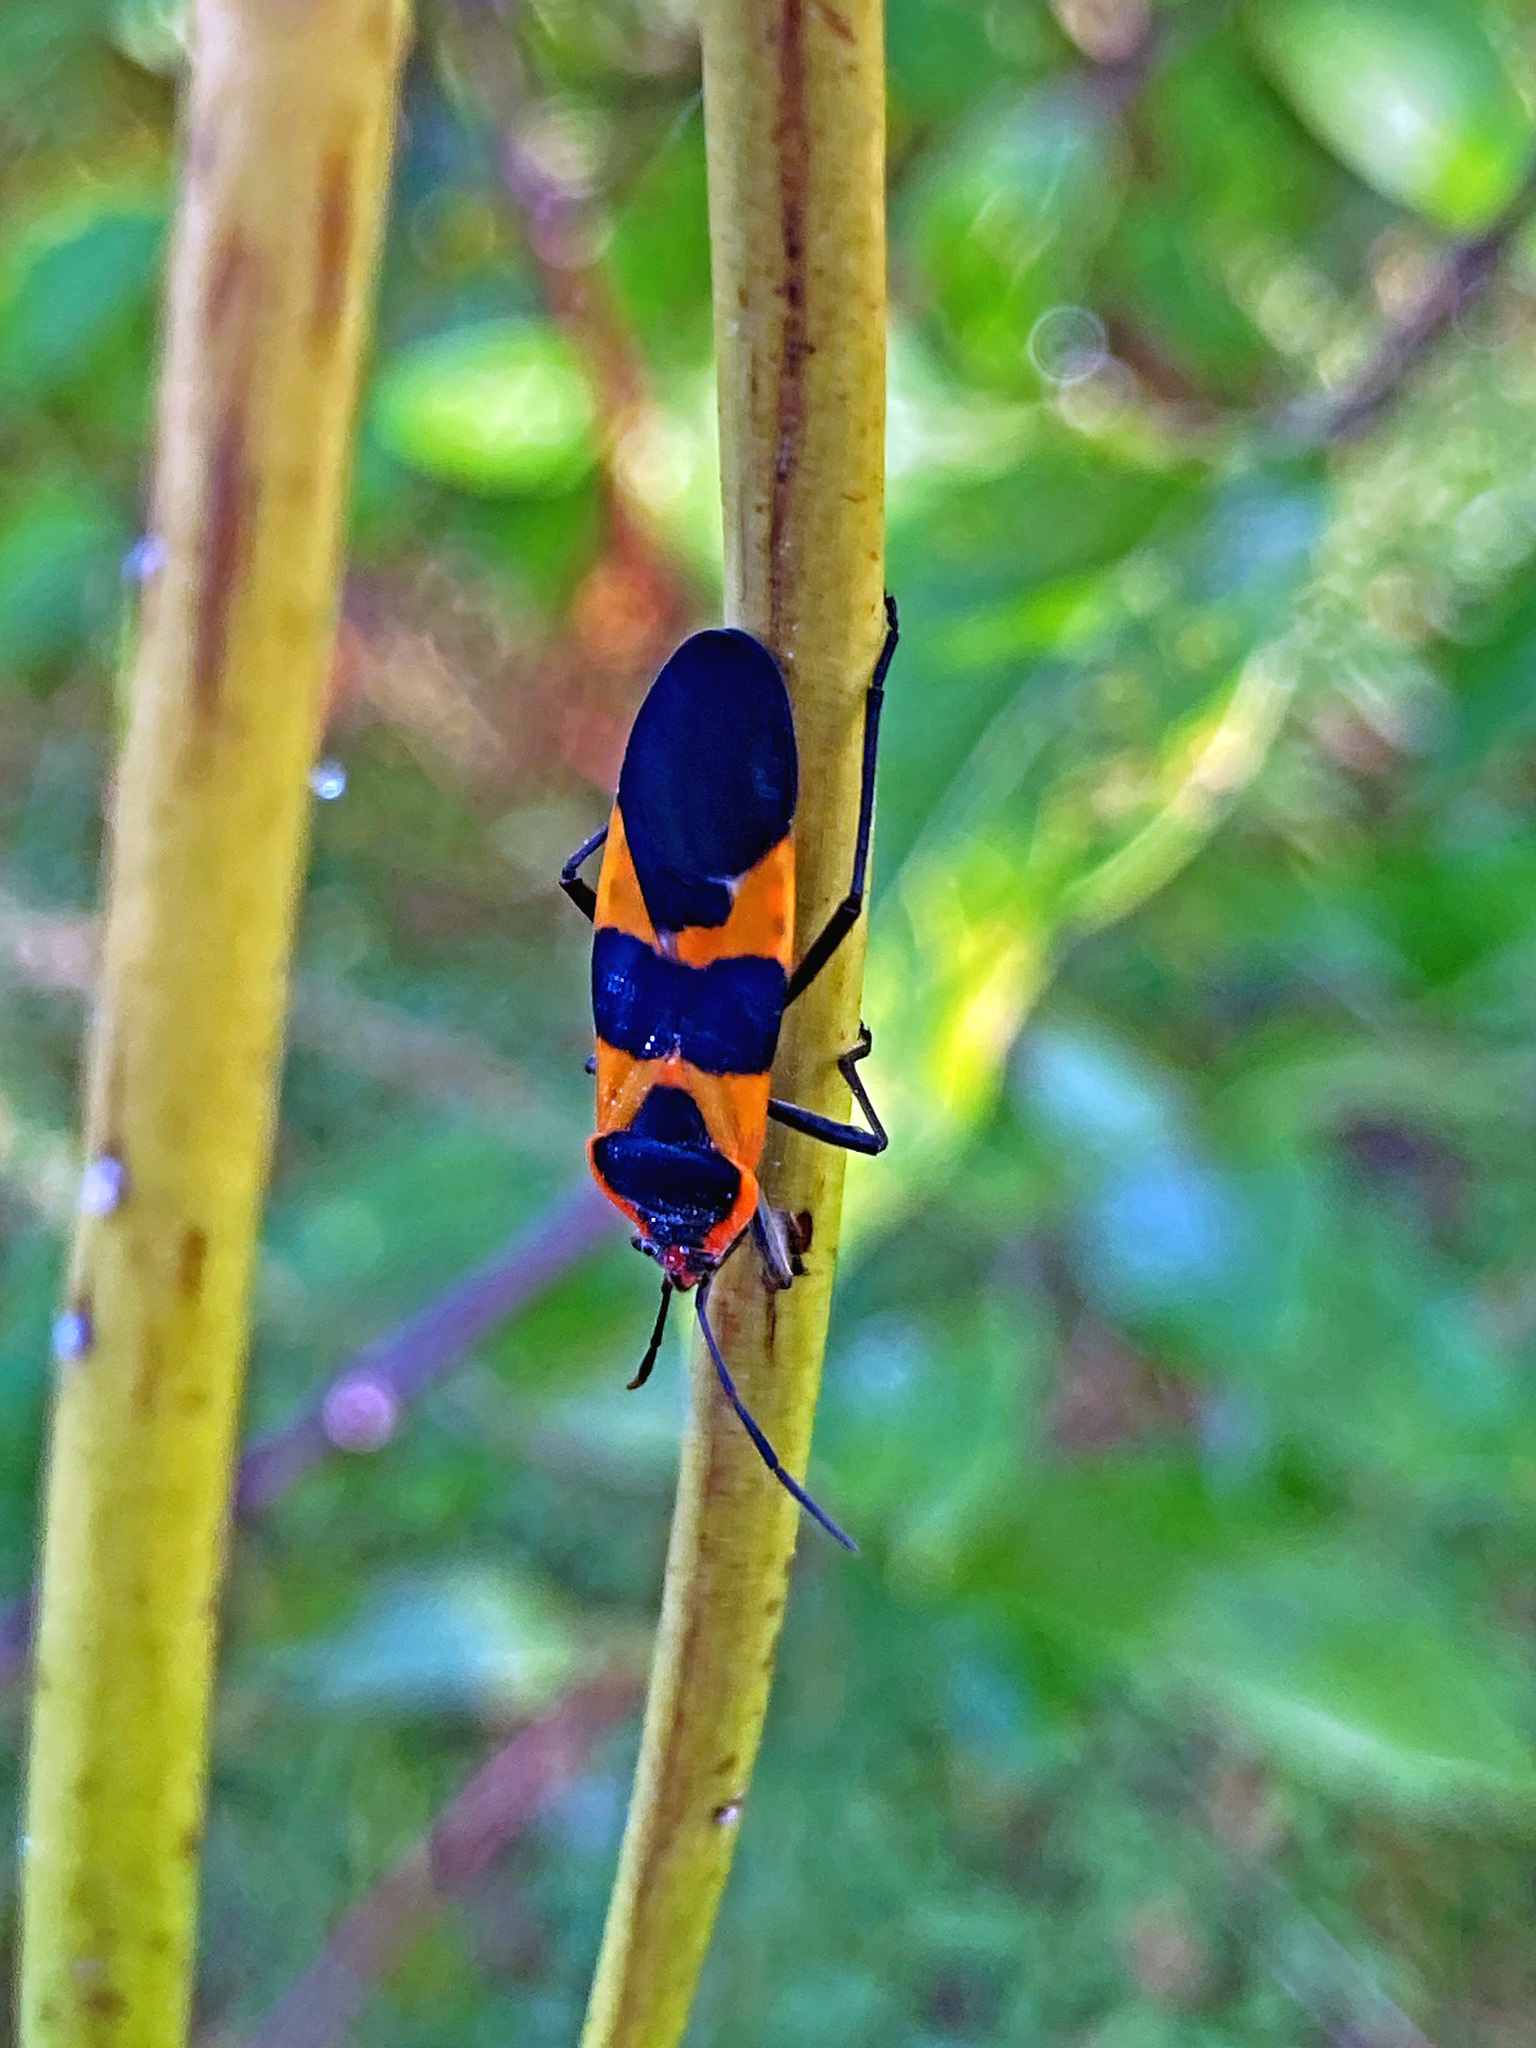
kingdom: Animalia
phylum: Arthropoda
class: Insecta
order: Hemiptera
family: Lygaeidae
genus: Oncopeltus
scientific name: Oncopeltus fasciatus
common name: Large milkweed bug
